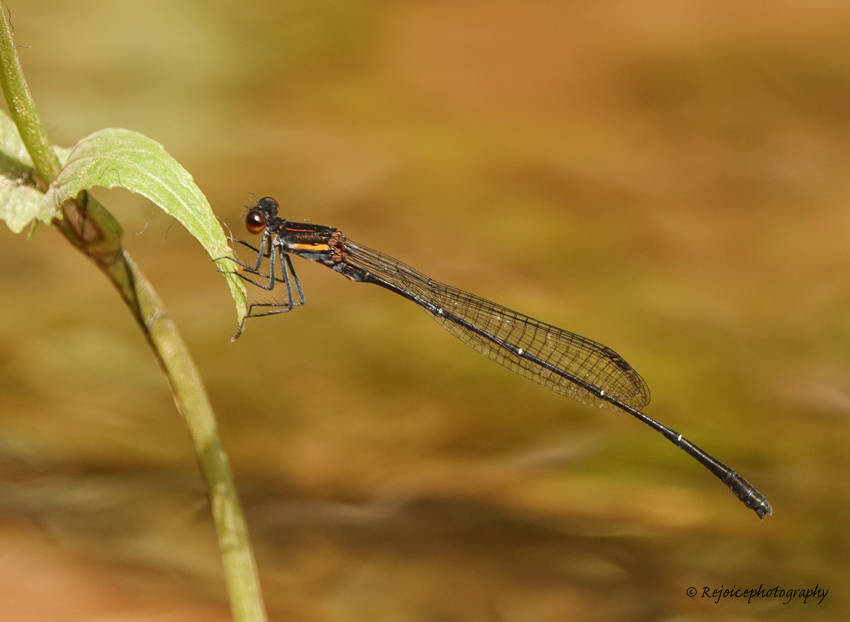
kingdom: Animalia
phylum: Arthropoda
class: Insecta
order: Odonata
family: Platycnemididae
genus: Prodasineura
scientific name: Prodasineura verticalis
